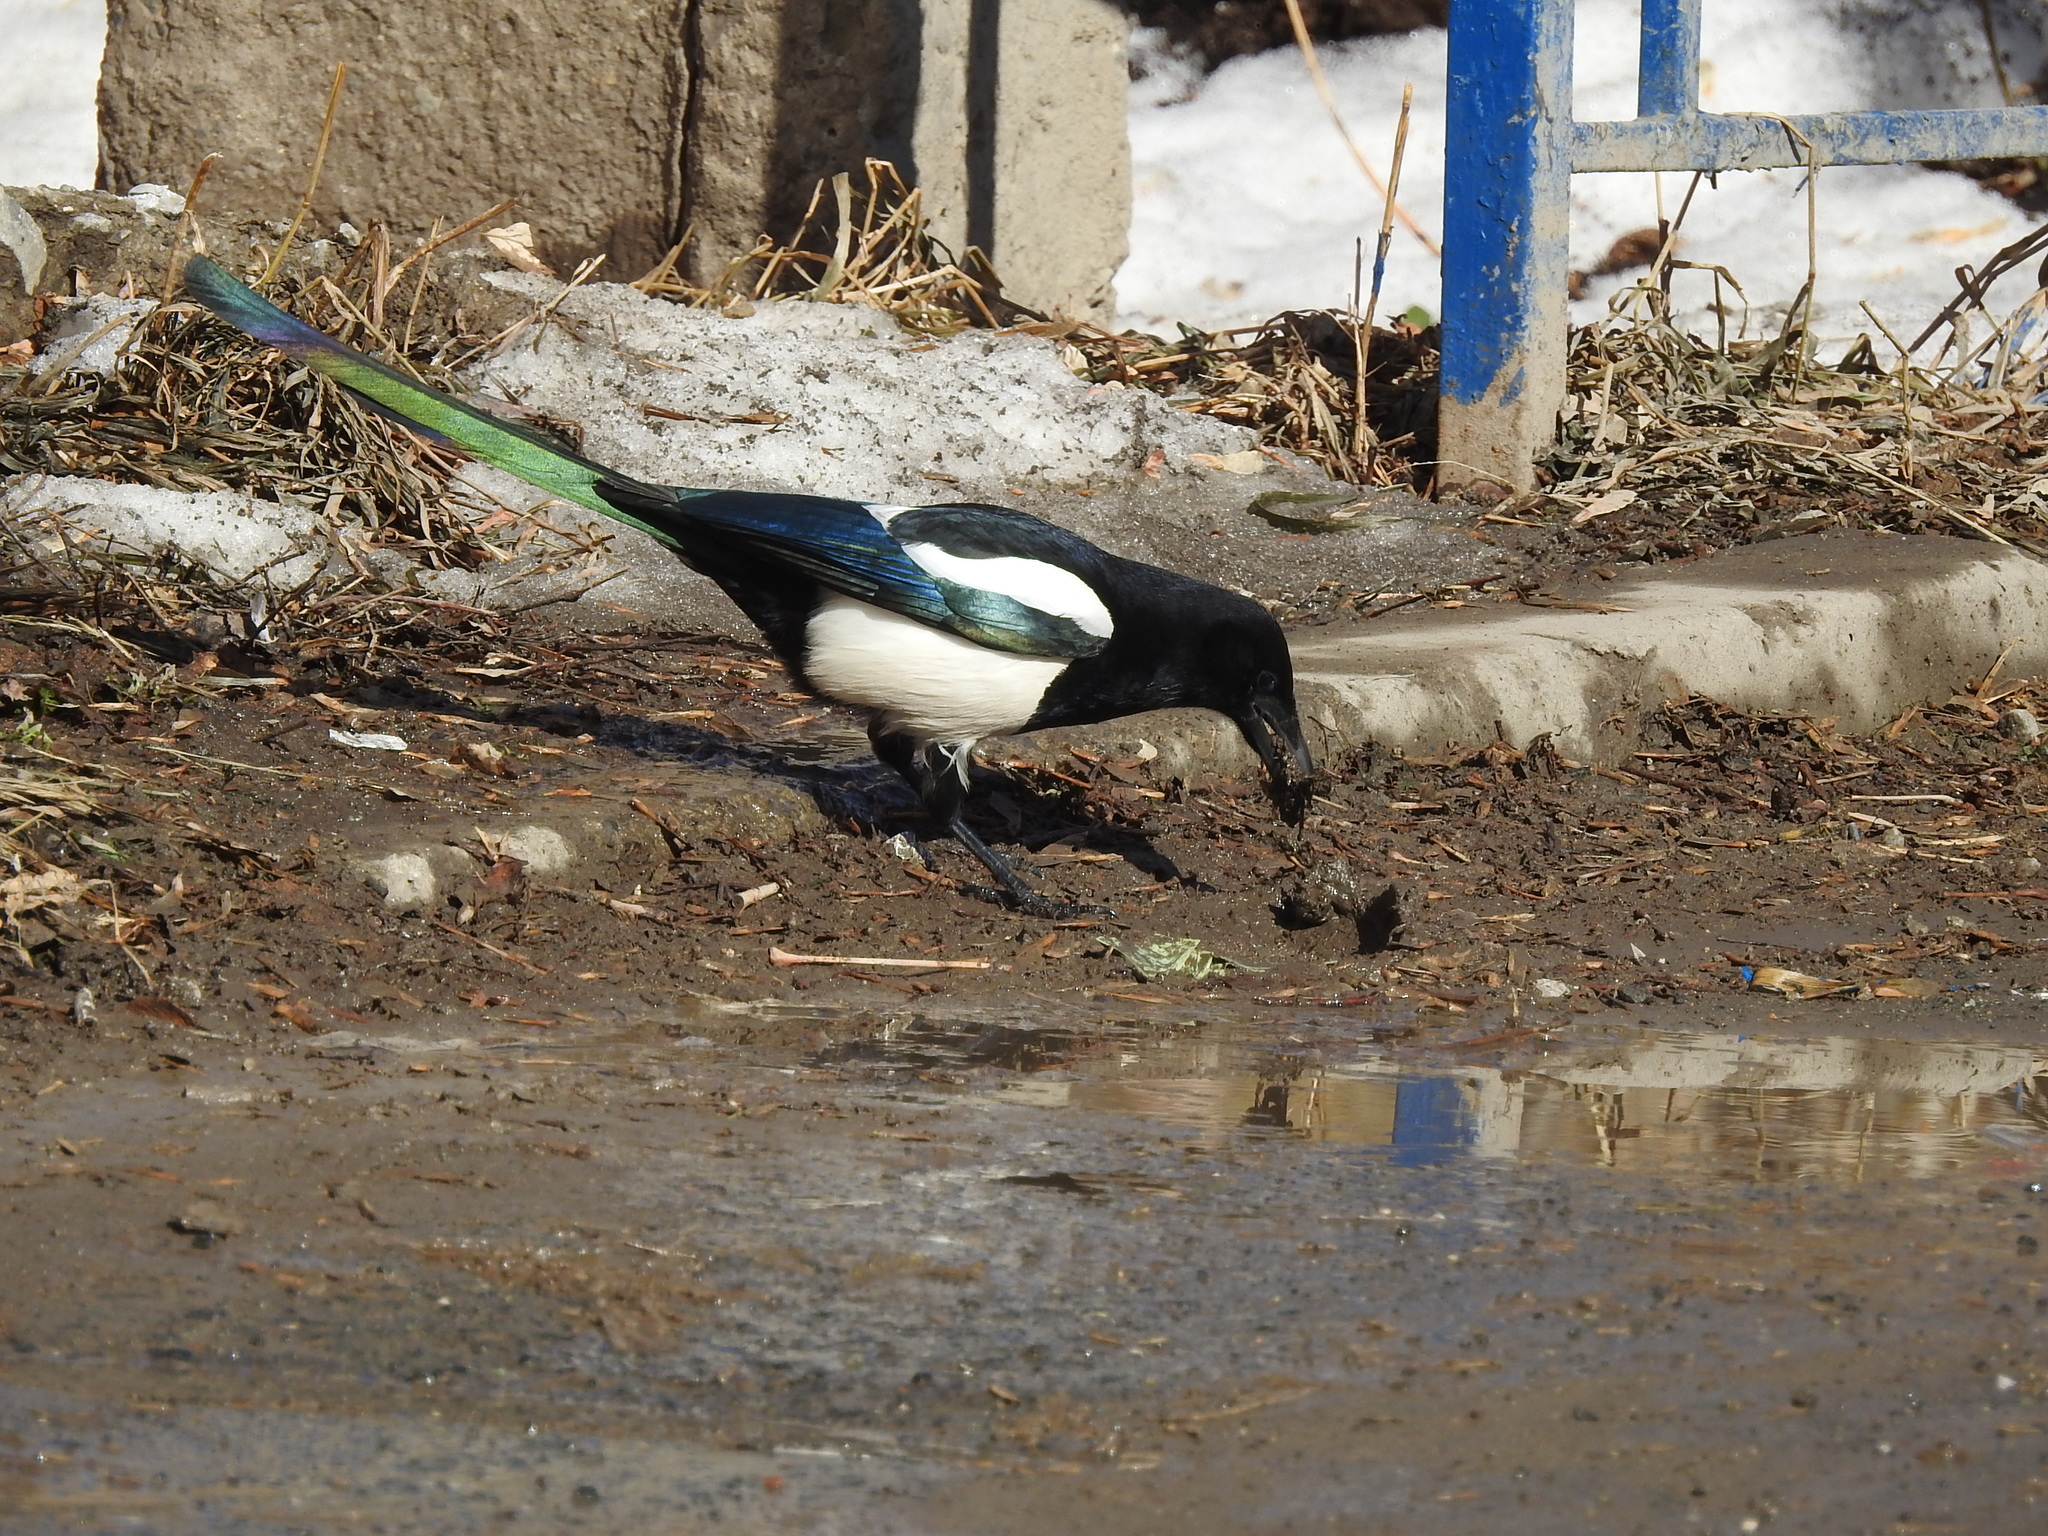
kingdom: Animalia
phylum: Chordata
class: Aves
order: Passeriformes
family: Corvidae
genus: Pica
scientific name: Pica pica
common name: Eurasian magpie
